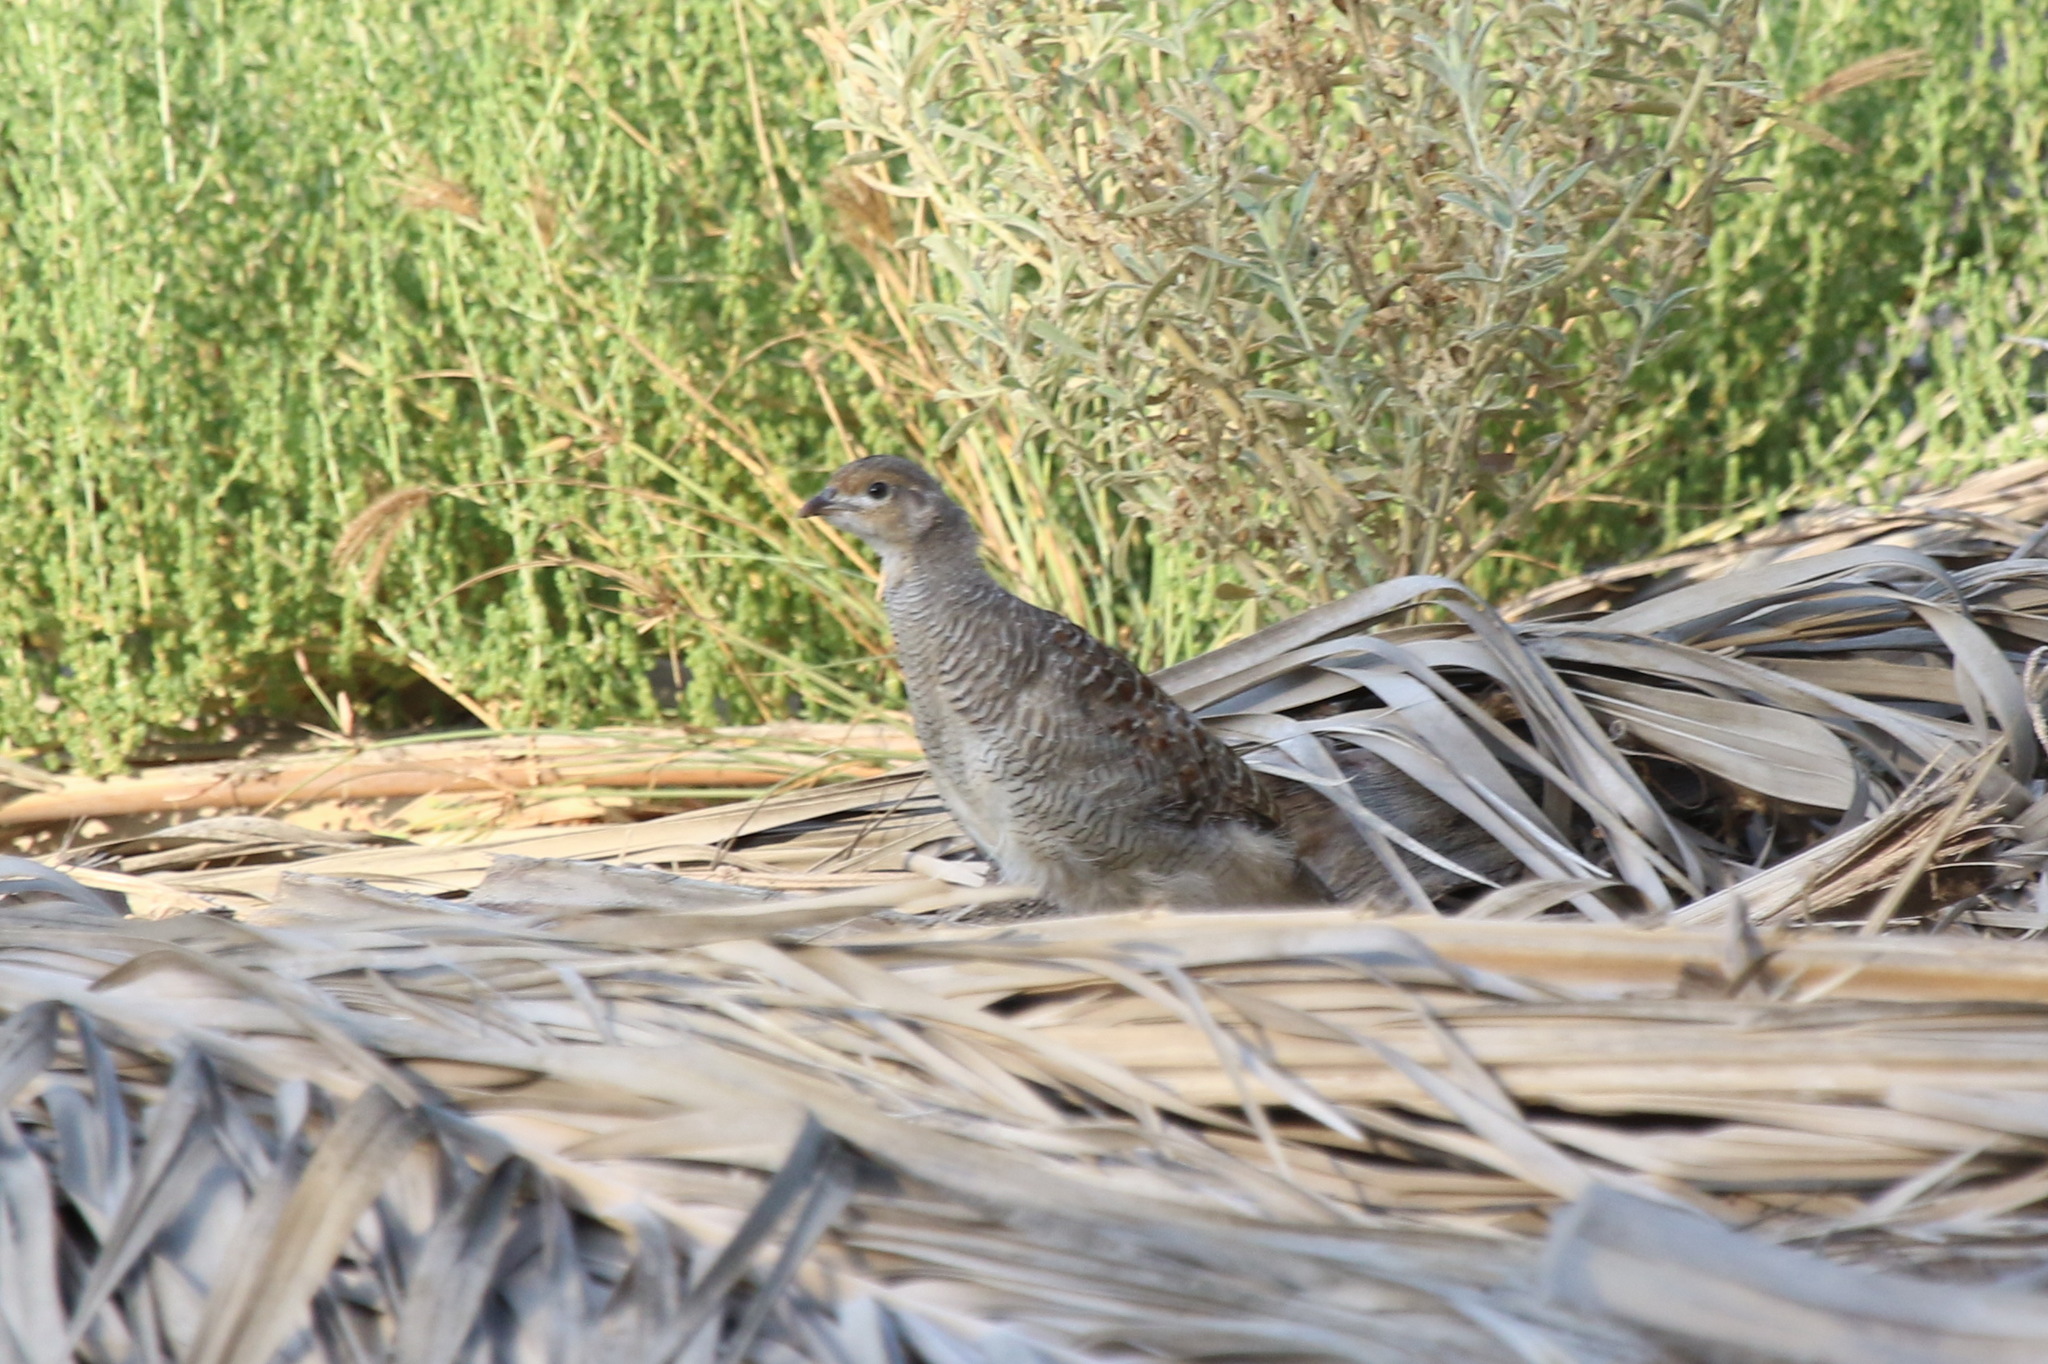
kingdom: Animalia
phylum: Chordata
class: Aves
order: Galliformes
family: Phasianidae
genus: Ortygornis
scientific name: Ortygornis pondicerianus
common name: Grey francolin
